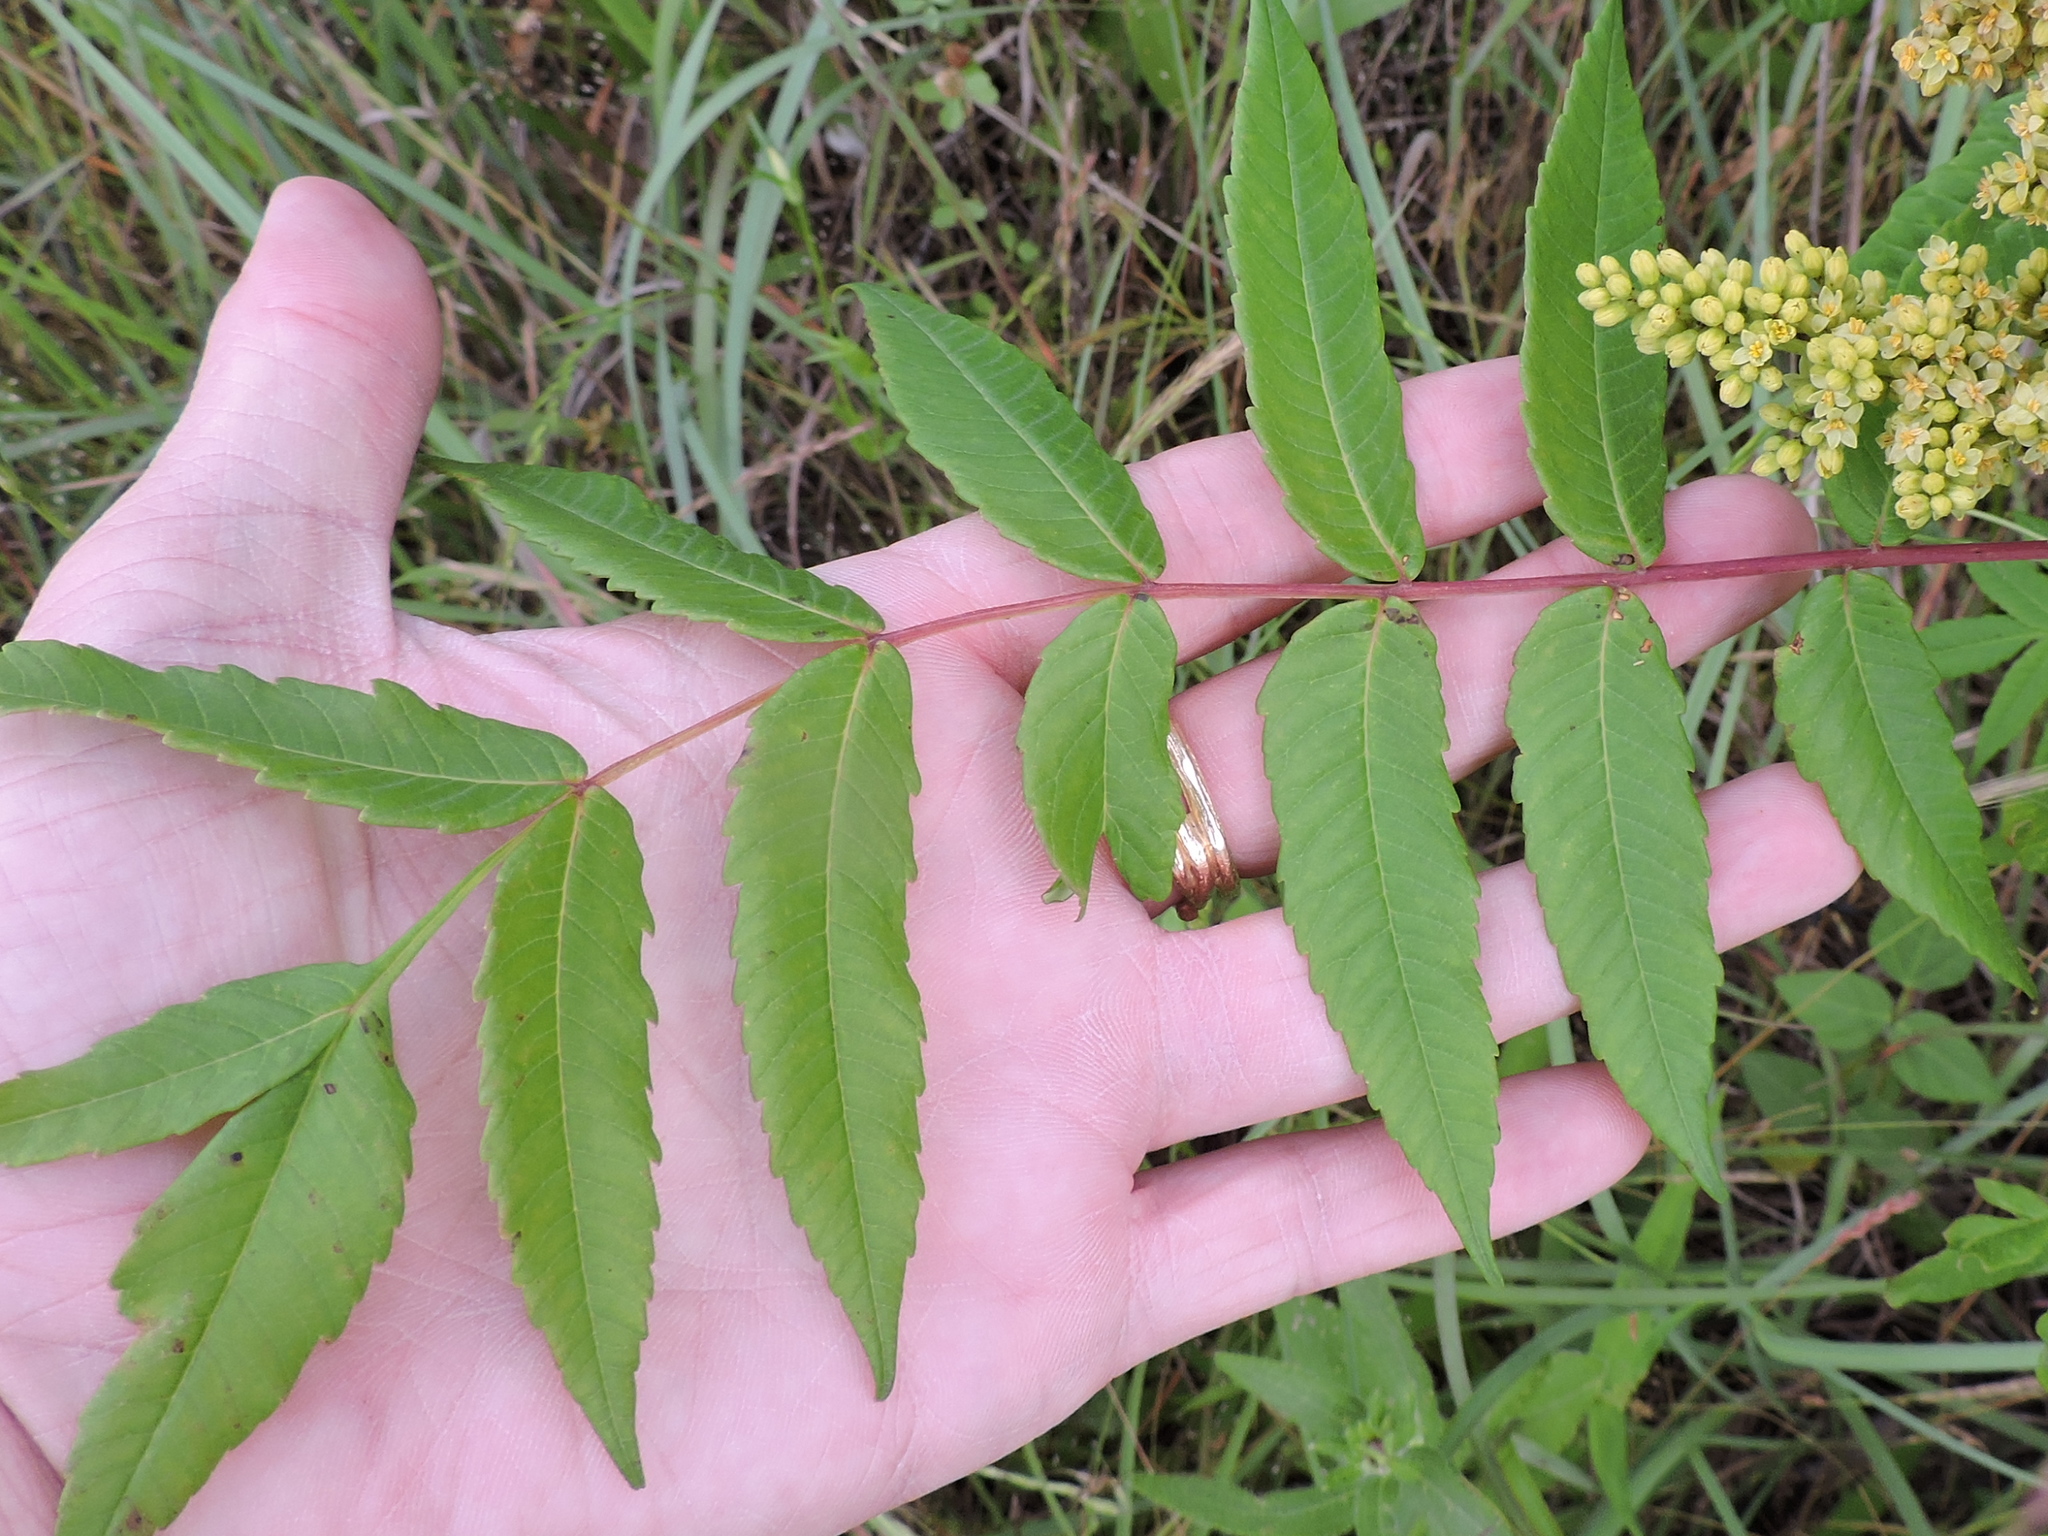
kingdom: Plantae
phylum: Tracheophyta
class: Magnoliopsida
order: Sapindales
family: Anacardiaceae
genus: Rhus
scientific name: Rhus glabra
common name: Scarlet sumac
